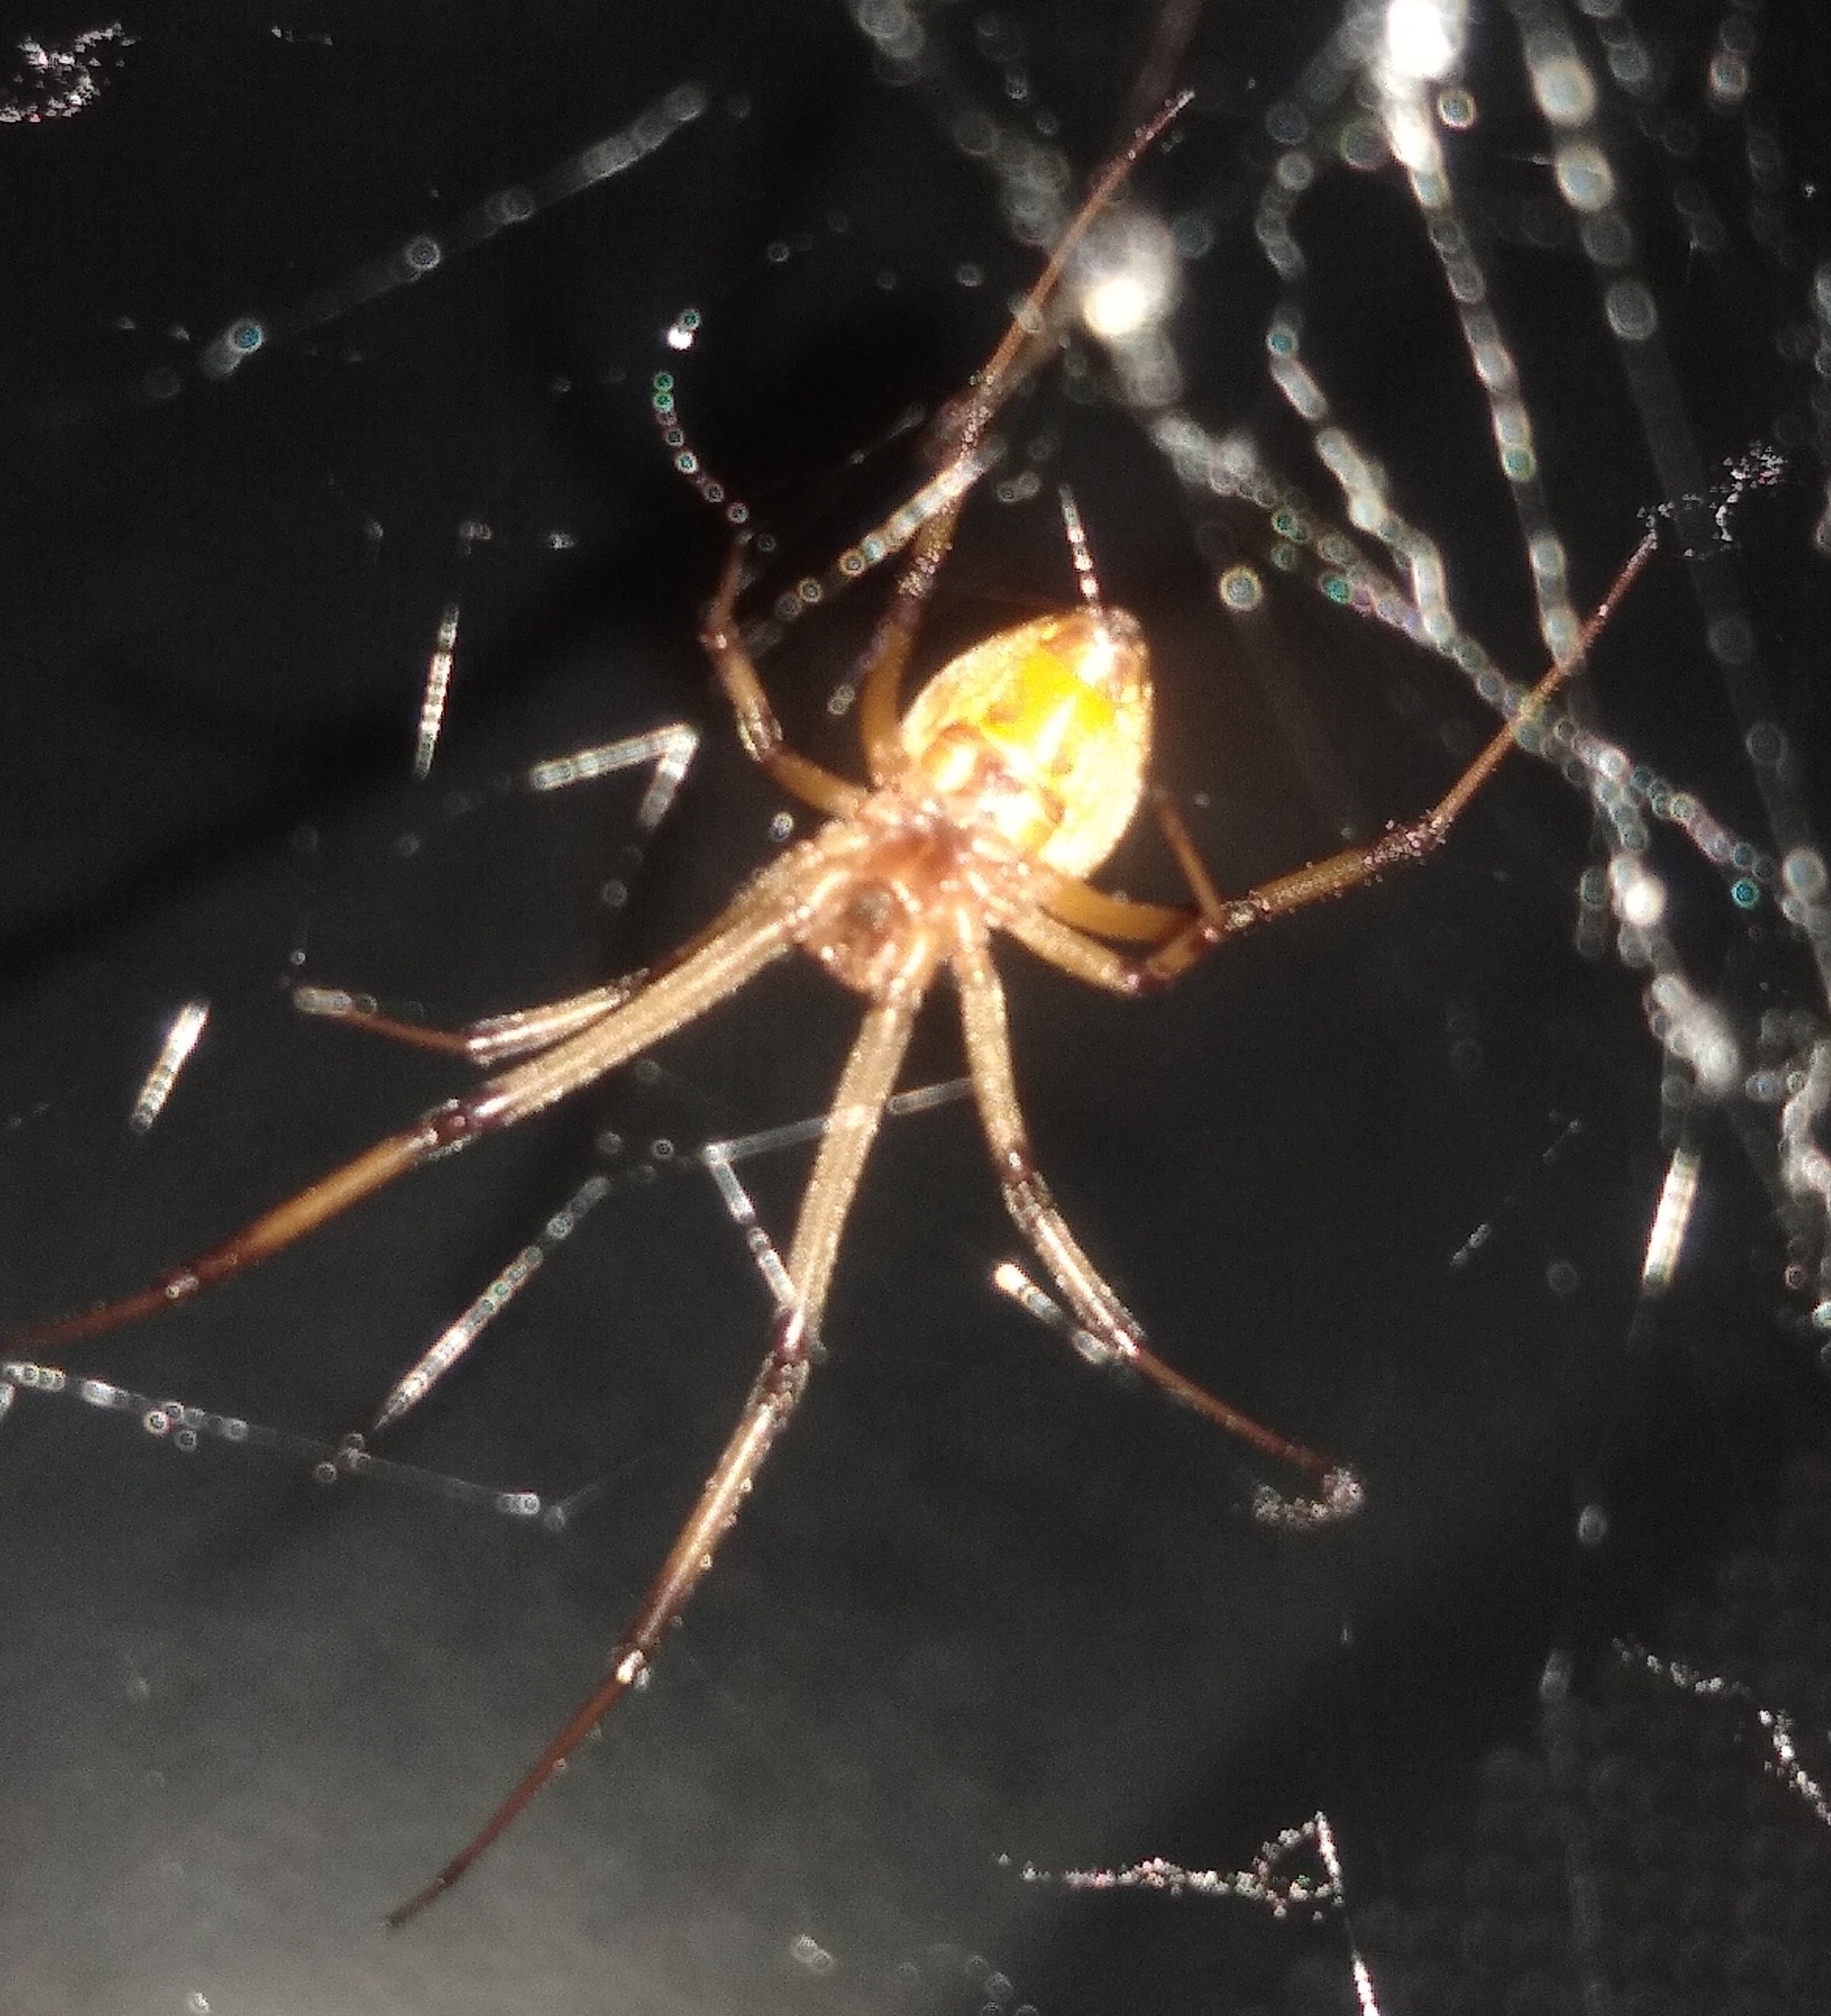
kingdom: Animalia
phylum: Arthropoda
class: Arachnida
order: Araneae
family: Theridiidae
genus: Latrodectus
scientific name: Latrodectus geometricus
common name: Brown widow spider
